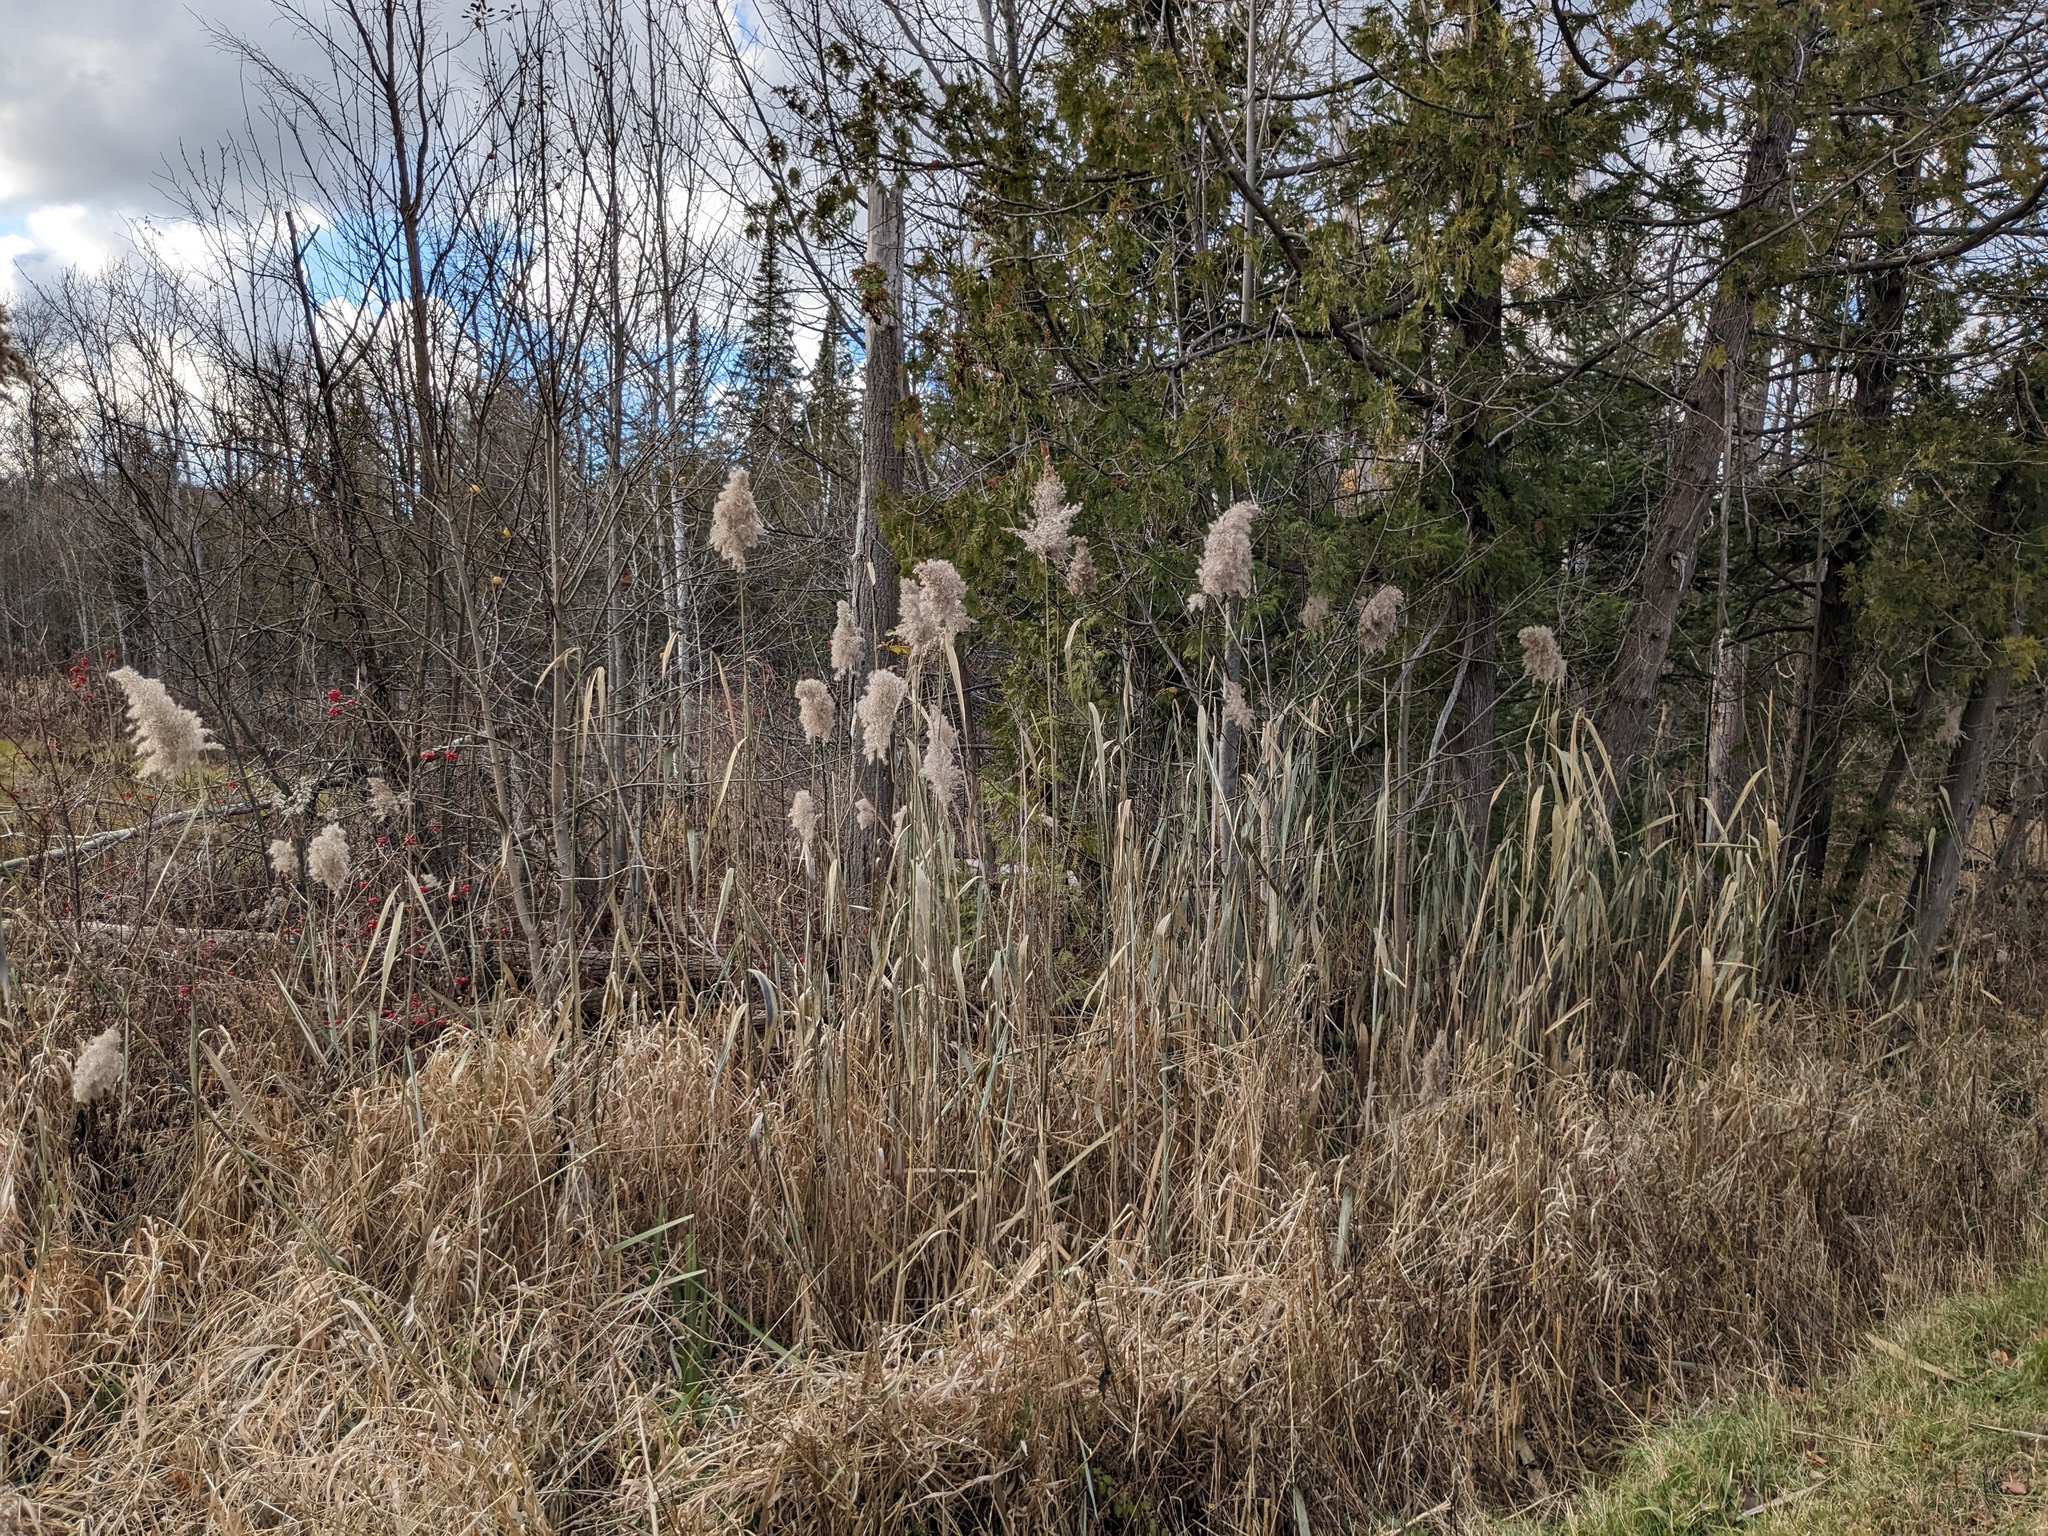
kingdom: Plantae
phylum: Tracheophyta
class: Liliopsida
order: Poales
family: Poaceae
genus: Phragmites
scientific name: Phragmites australis
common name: Common reed
